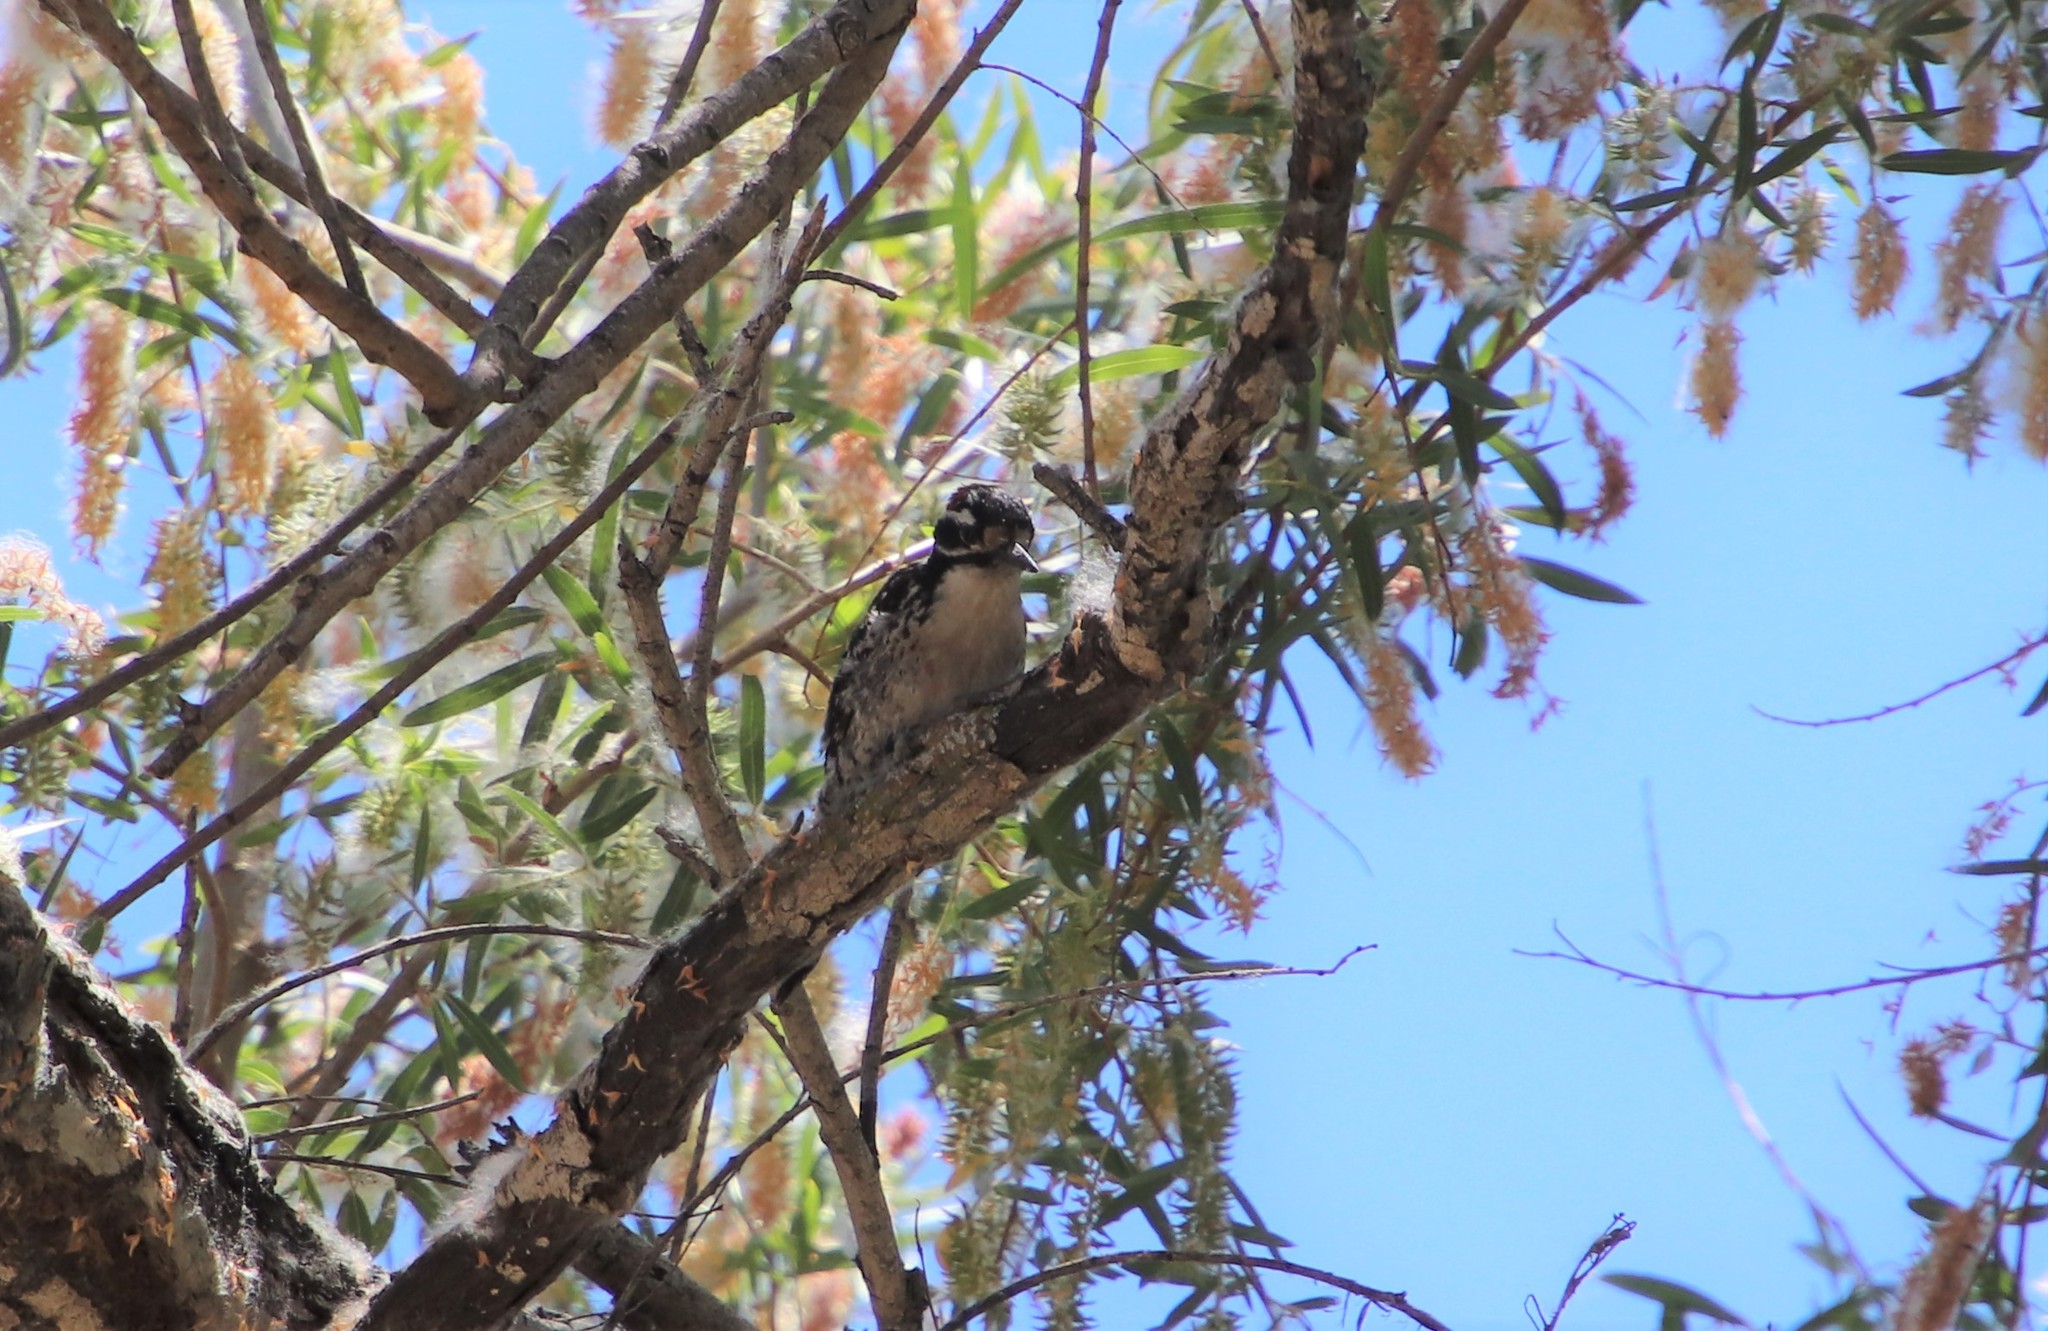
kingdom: Animalia
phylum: Chordata
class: Aves
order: Piciformes
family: Picidae
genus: Dryobates
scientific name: Dryobates nuttallii
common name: Nuttall's woodpecker
